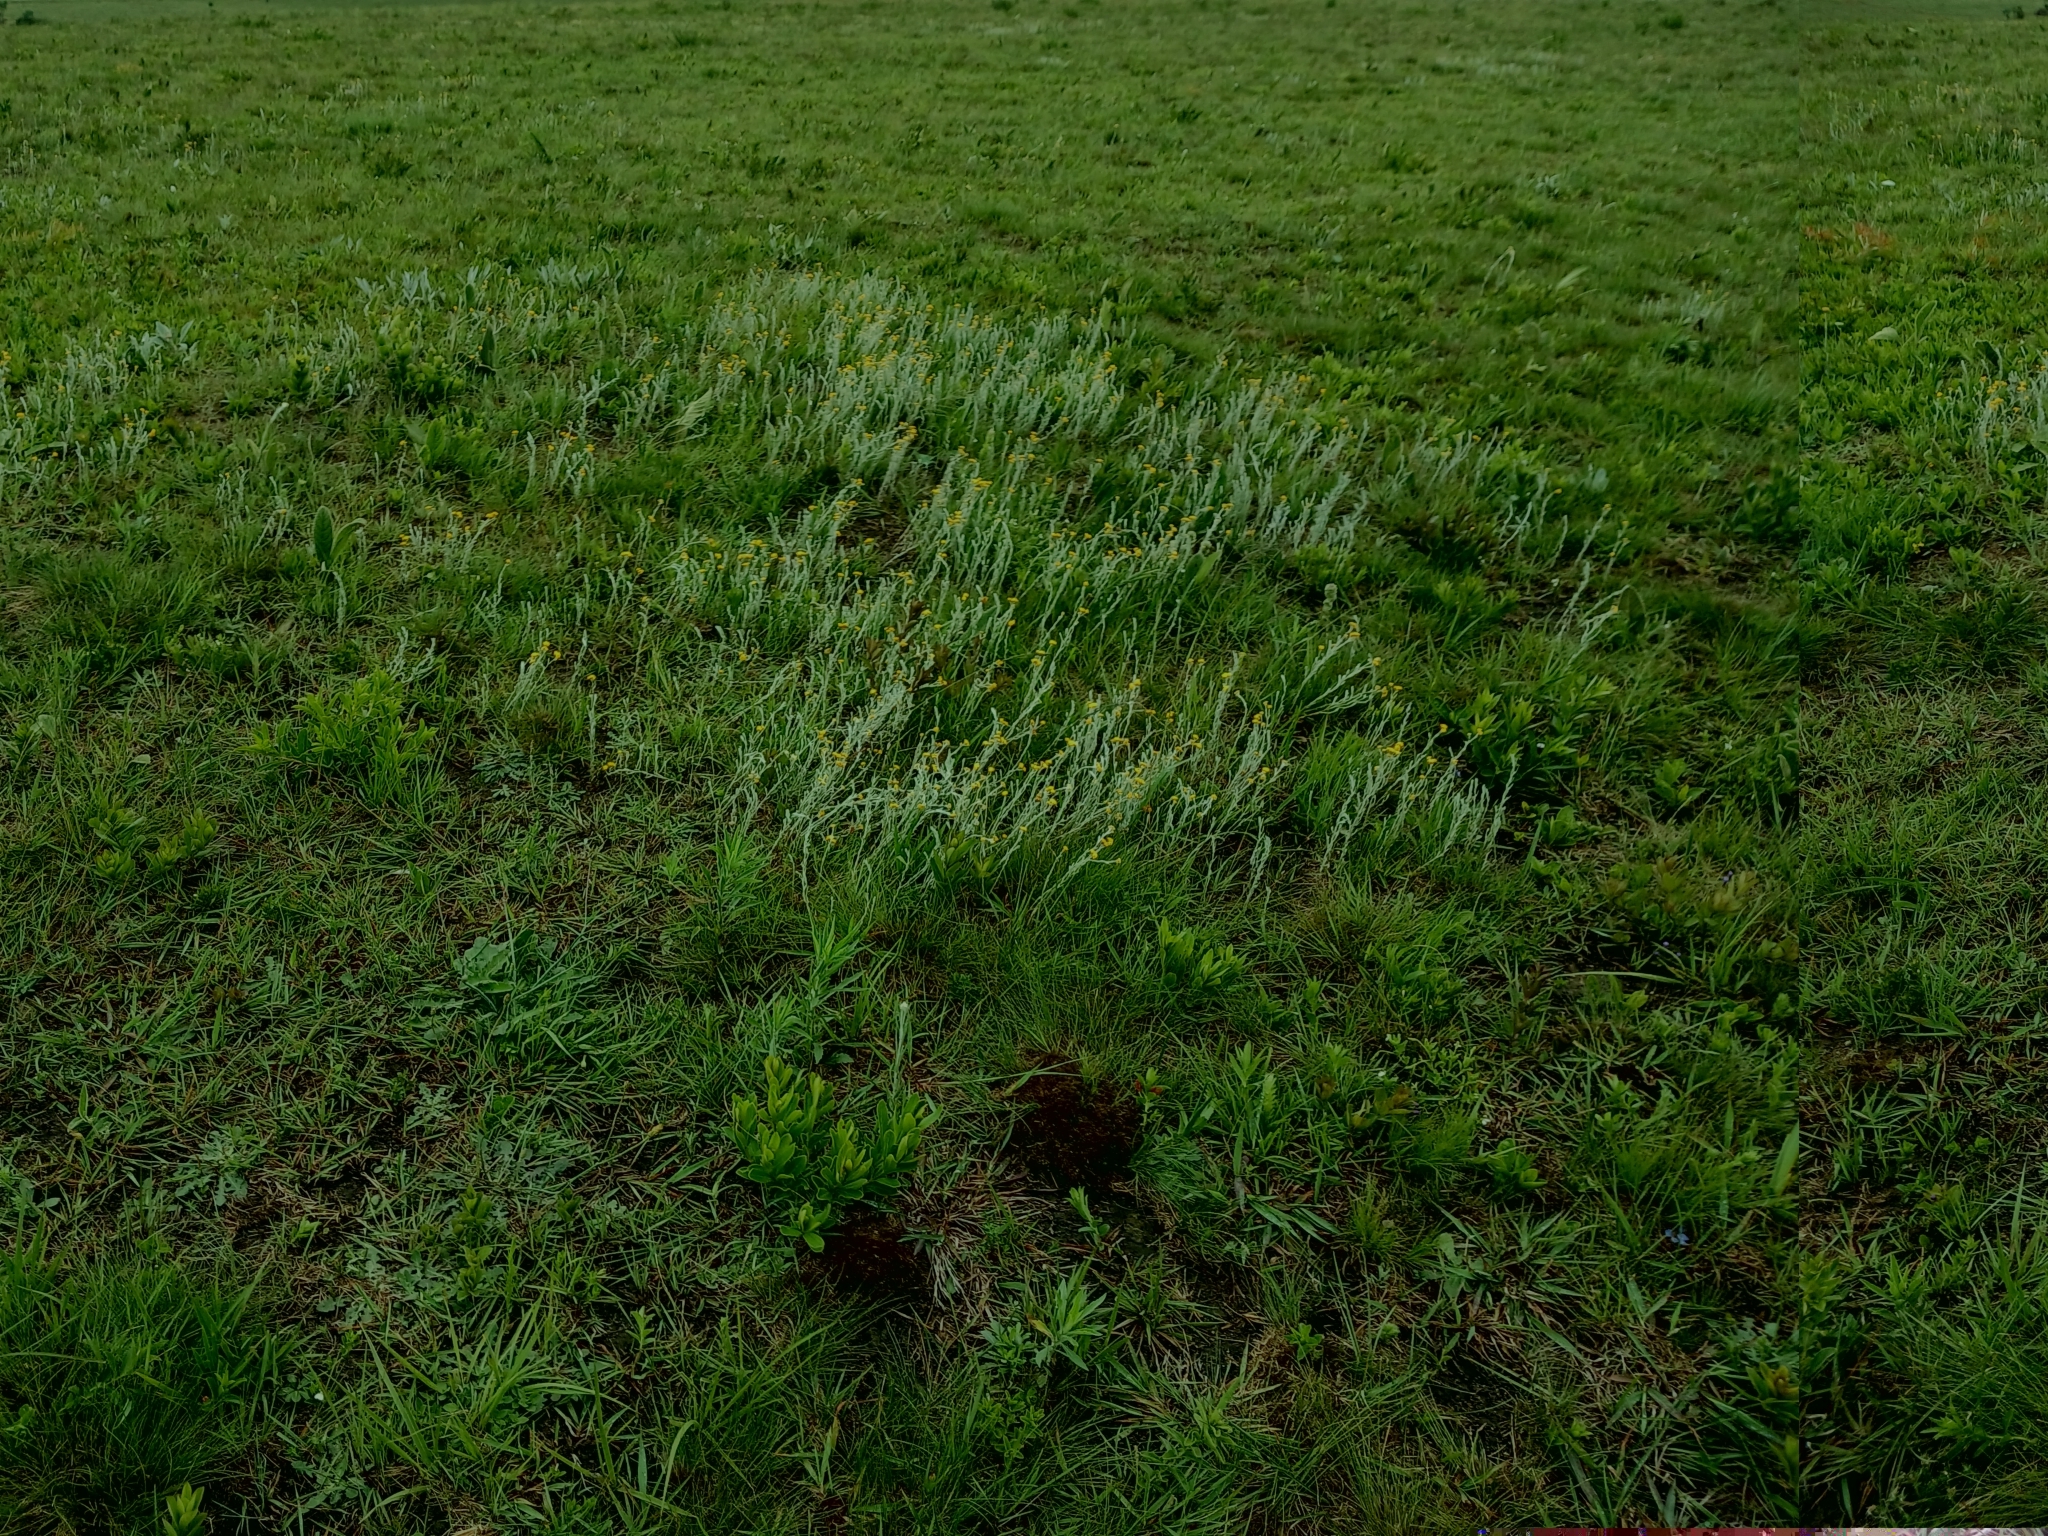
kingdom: Plantae
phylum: Tracheophyta
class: Magnoliopsida
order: Asterales
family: Asteraceae
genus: Helichrysum
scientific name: Helichrysum aureonitens
